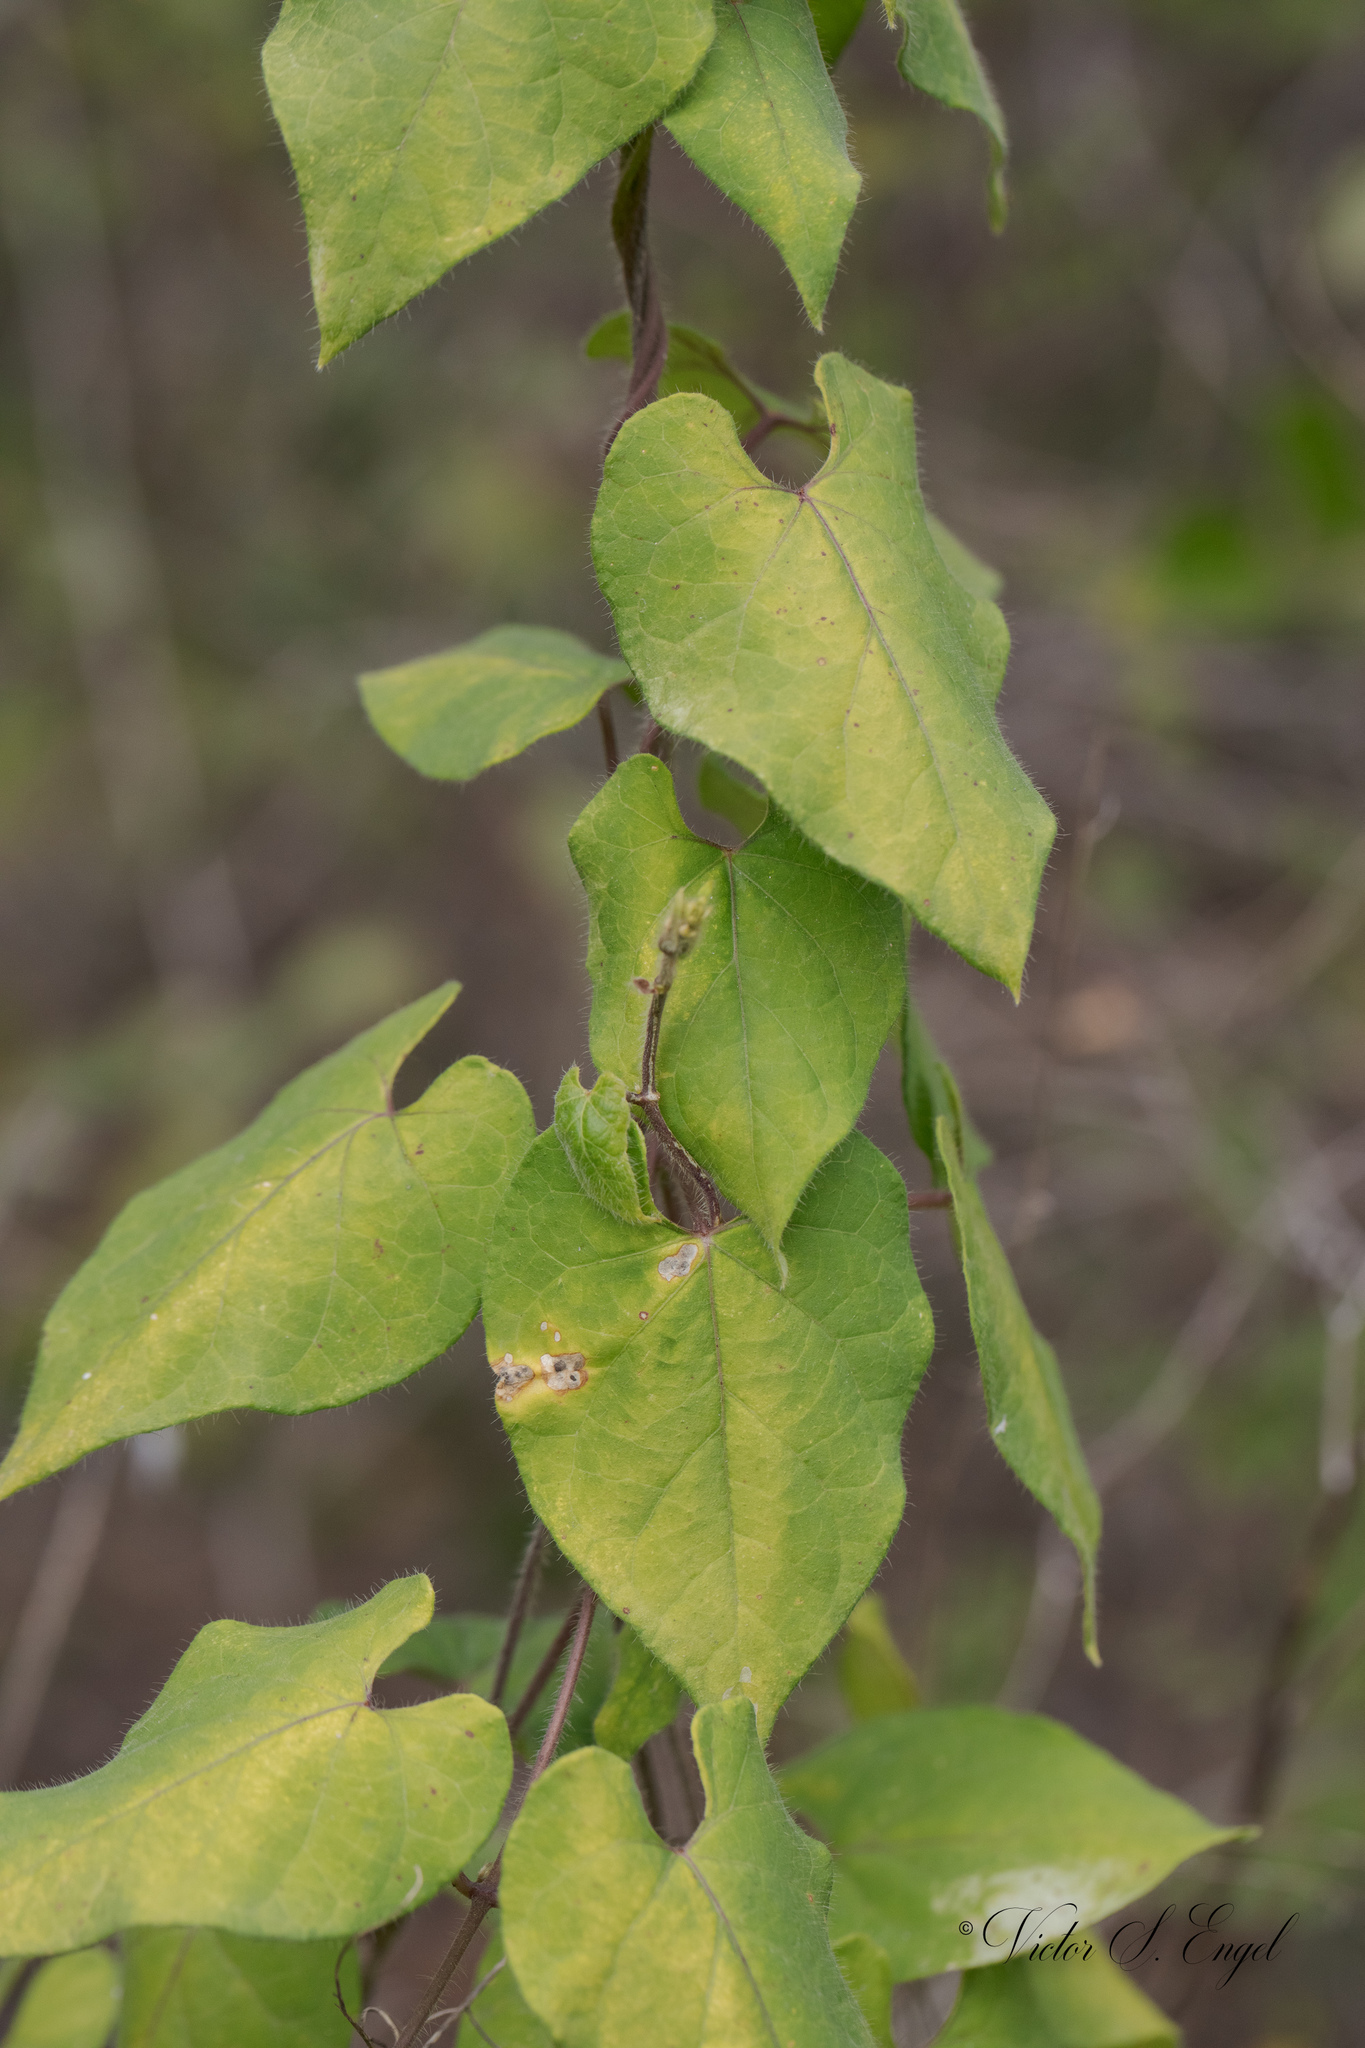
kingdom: Plantae
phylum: Tracheophyta
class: Magnoliopsida
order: Gentianales
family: Apocynaceae
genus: Dictyanthus
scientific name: Dictyanthus reticulatus
